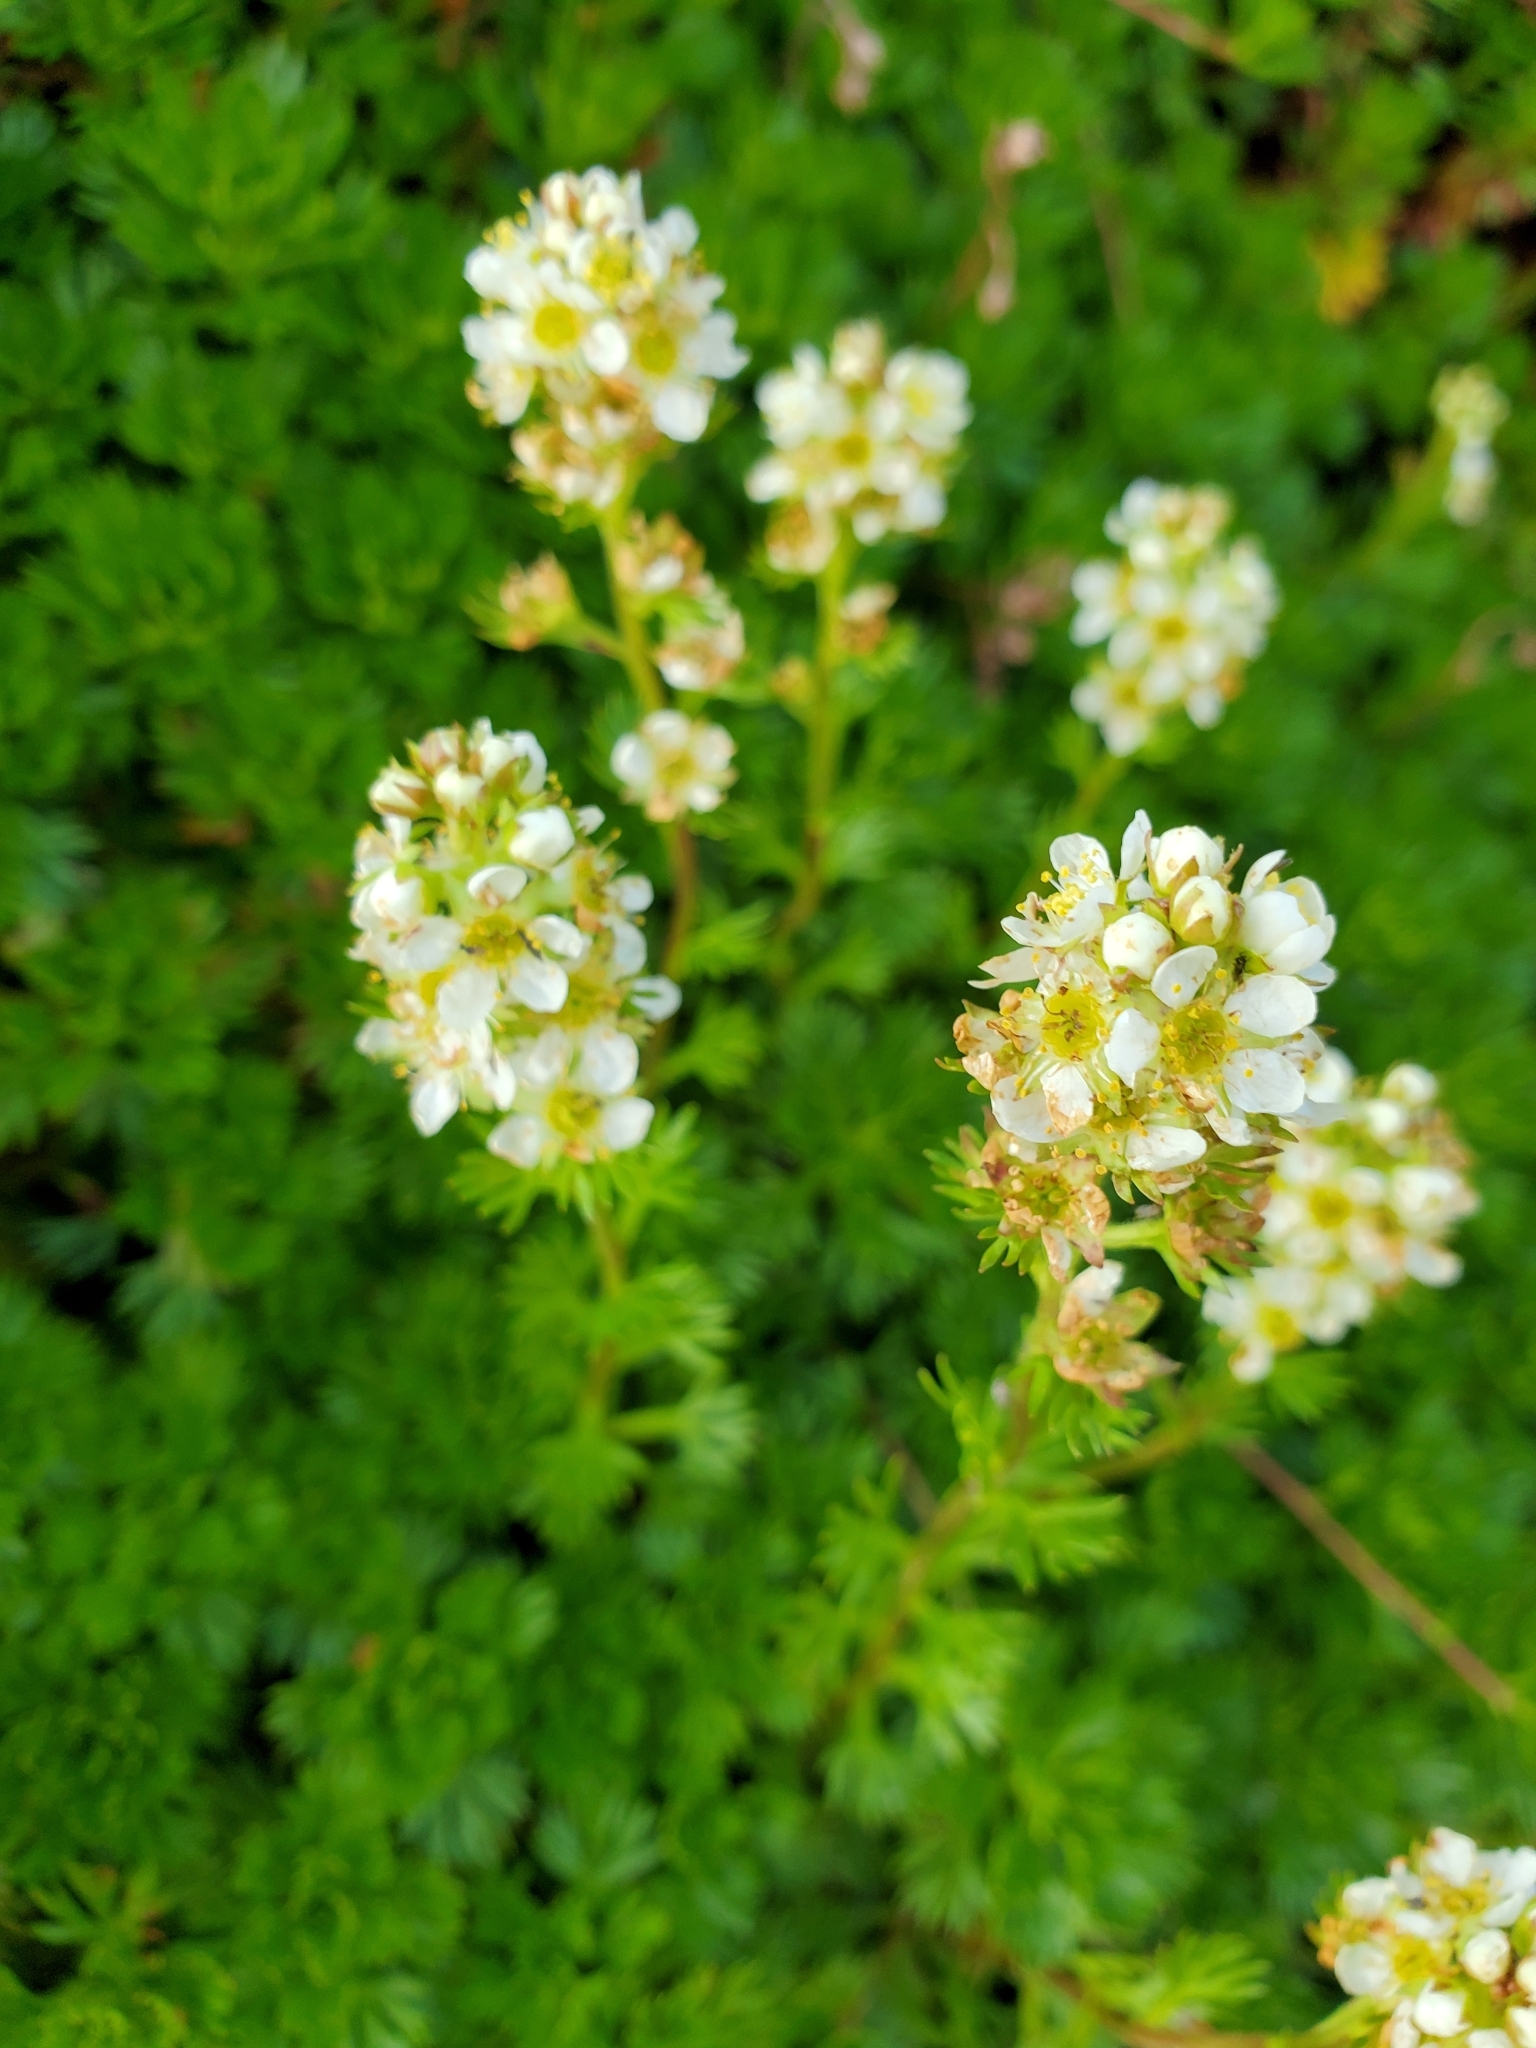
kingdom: Plantae
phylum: Tracheophyta
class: Magnoliopsida
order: Rosales
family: Rosaceae
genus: Luetkea
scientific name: Luetkea pectinata
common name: Partridgefoot
